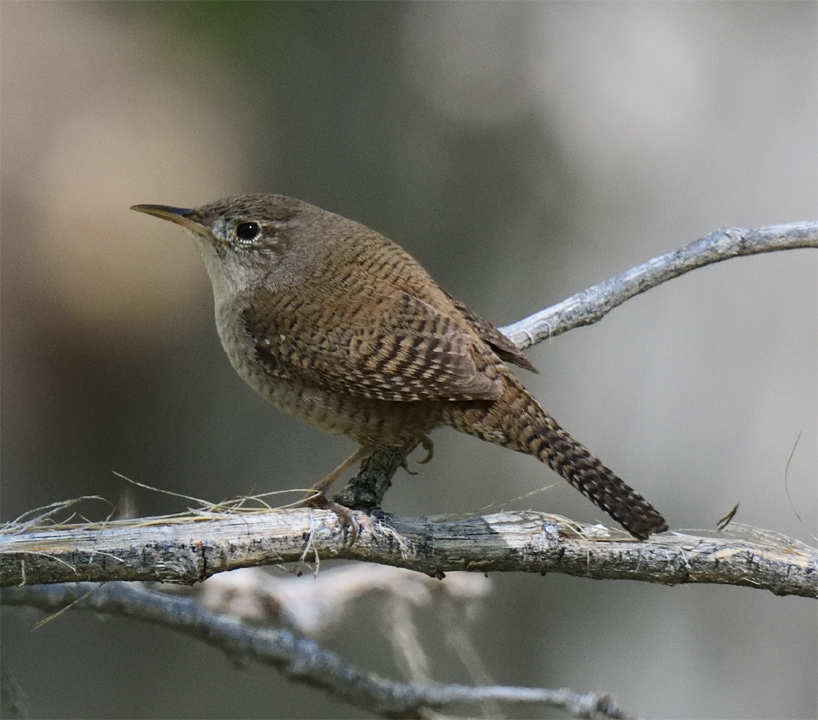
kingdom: Animalia
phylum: Chordata
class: Aves
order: Passeriformes
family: Troglodytidae
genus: Troglodytes
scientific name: Troglodytes aedon
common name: House wren
